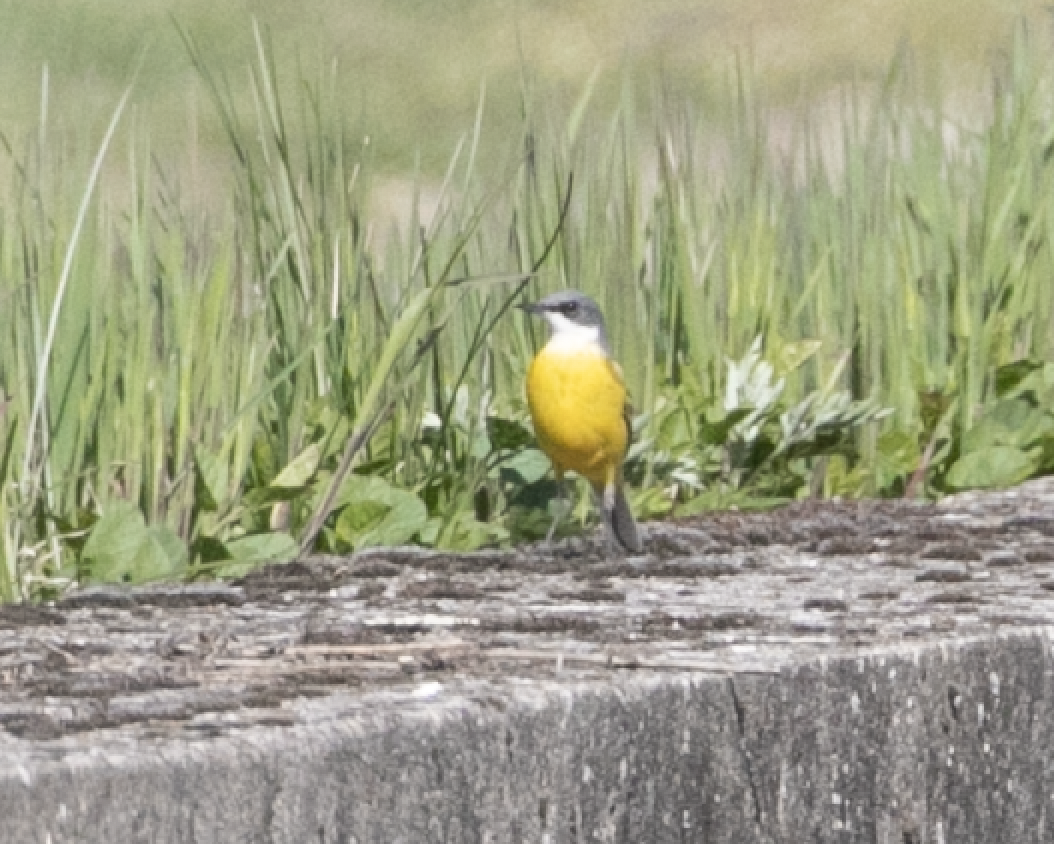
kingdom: Animalia
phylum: Chordata
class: Aves
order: Passeriformes
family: Motacillidae
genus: Motacilla
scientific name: Motacilla flava
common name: Western yellow wagtail
